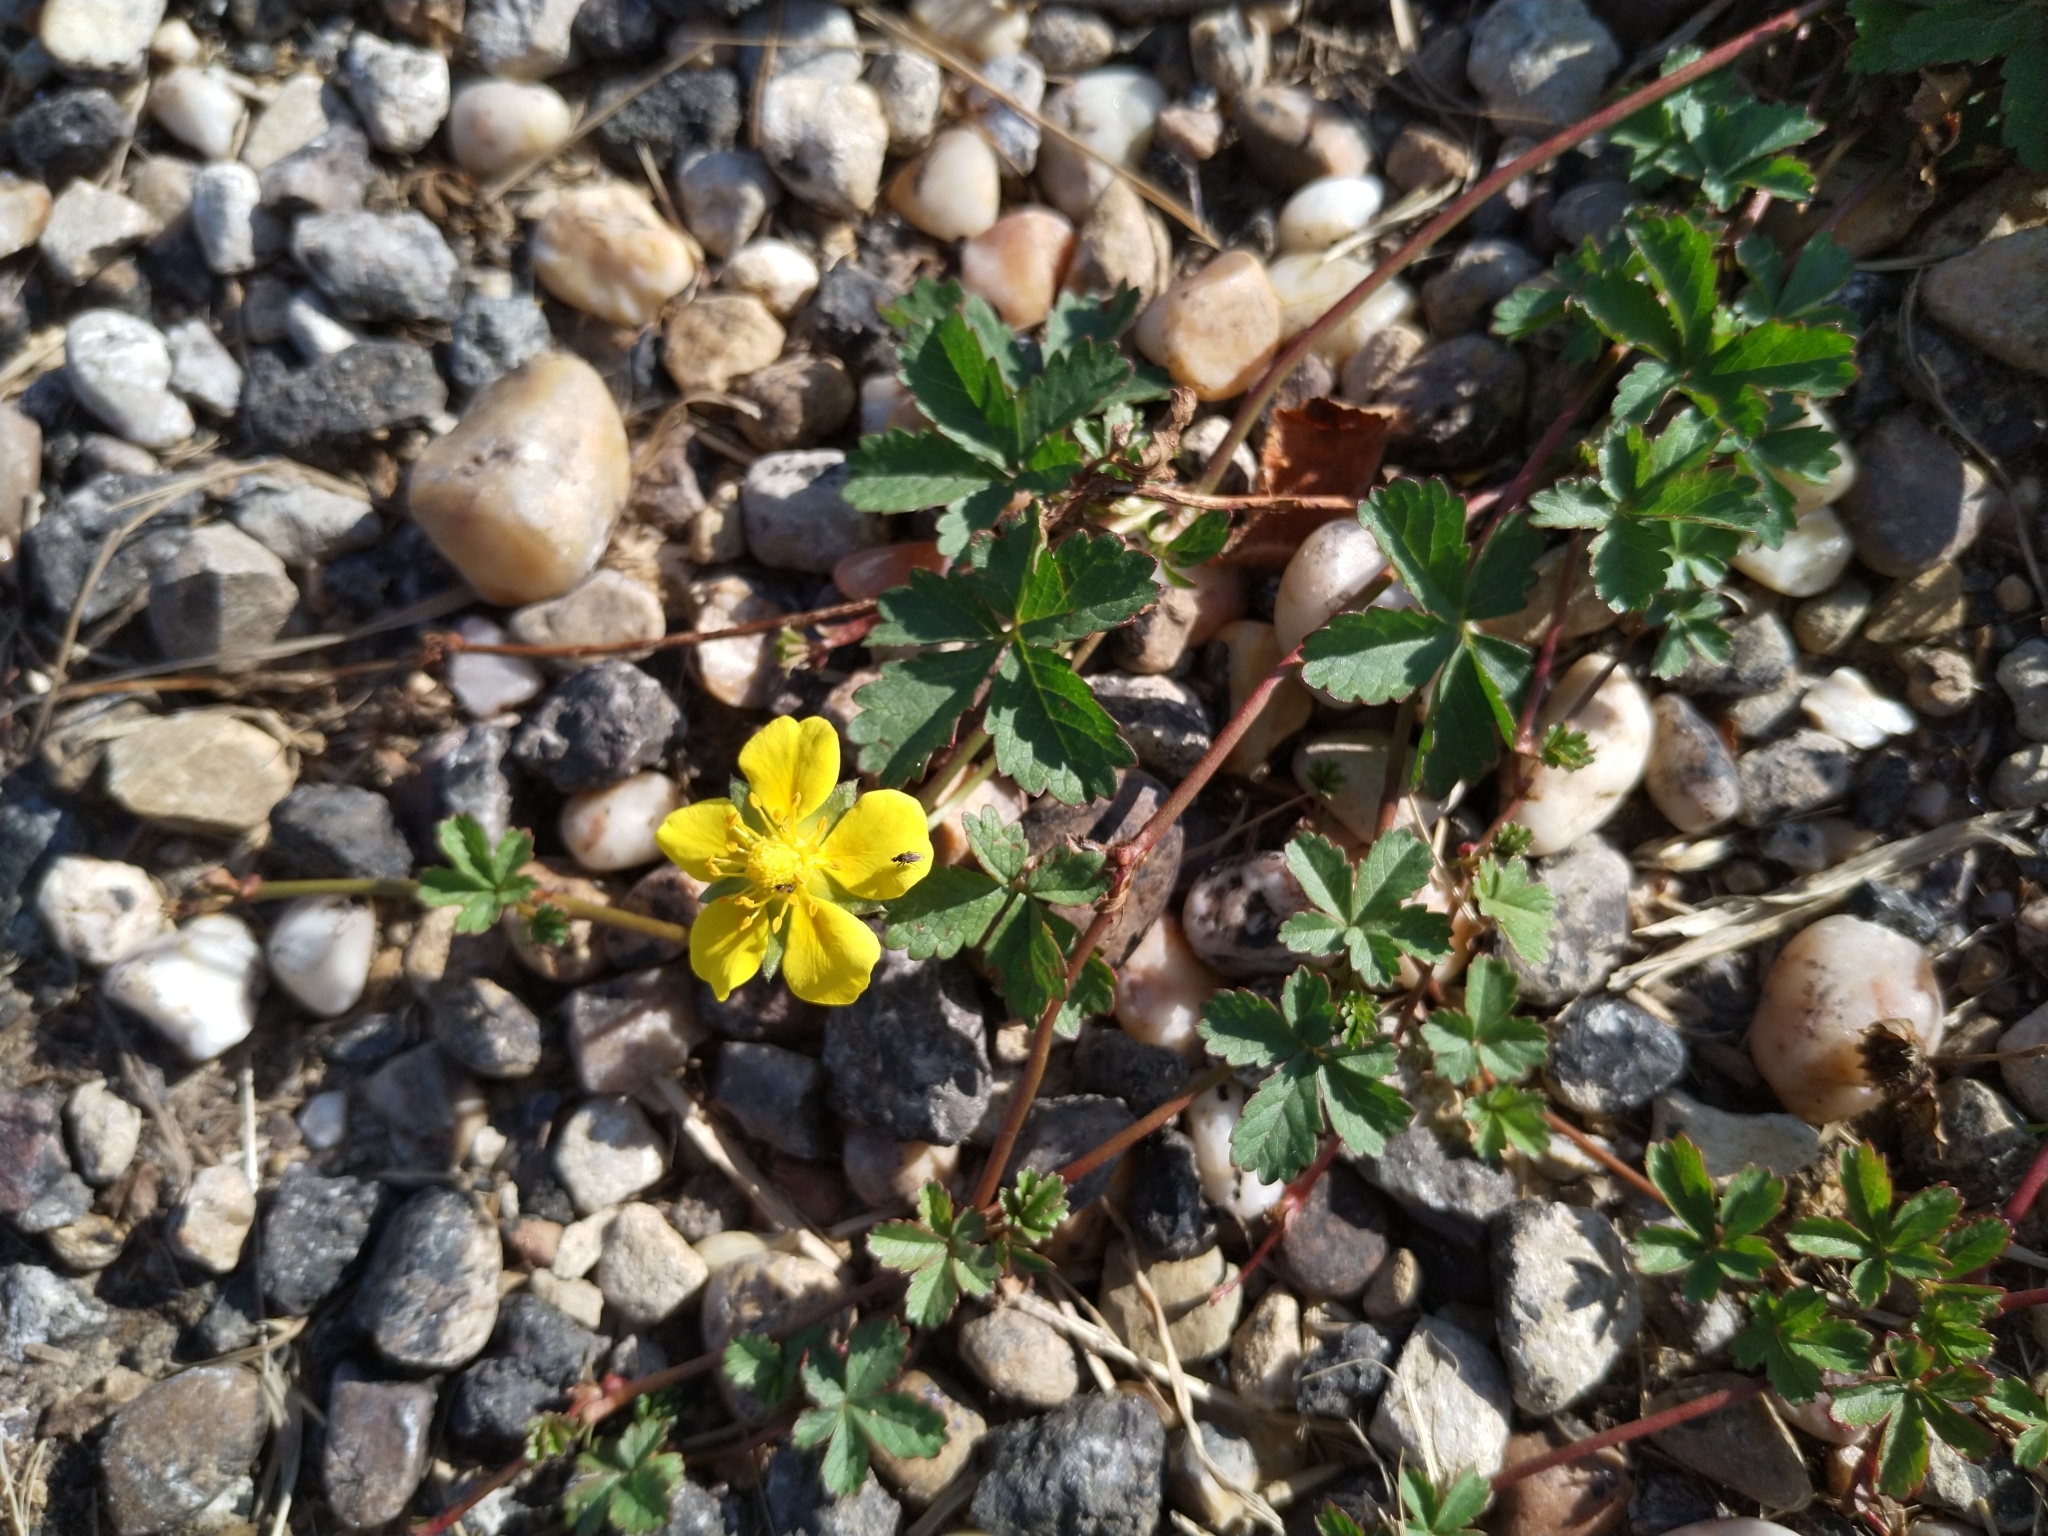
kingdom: Plantae
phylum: Tracheophyta
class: Magnoliopsida
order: Rosales
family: Rosaceae
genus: Potentilla
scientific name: Potentilla reptans
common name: Creeping cinquefoil
